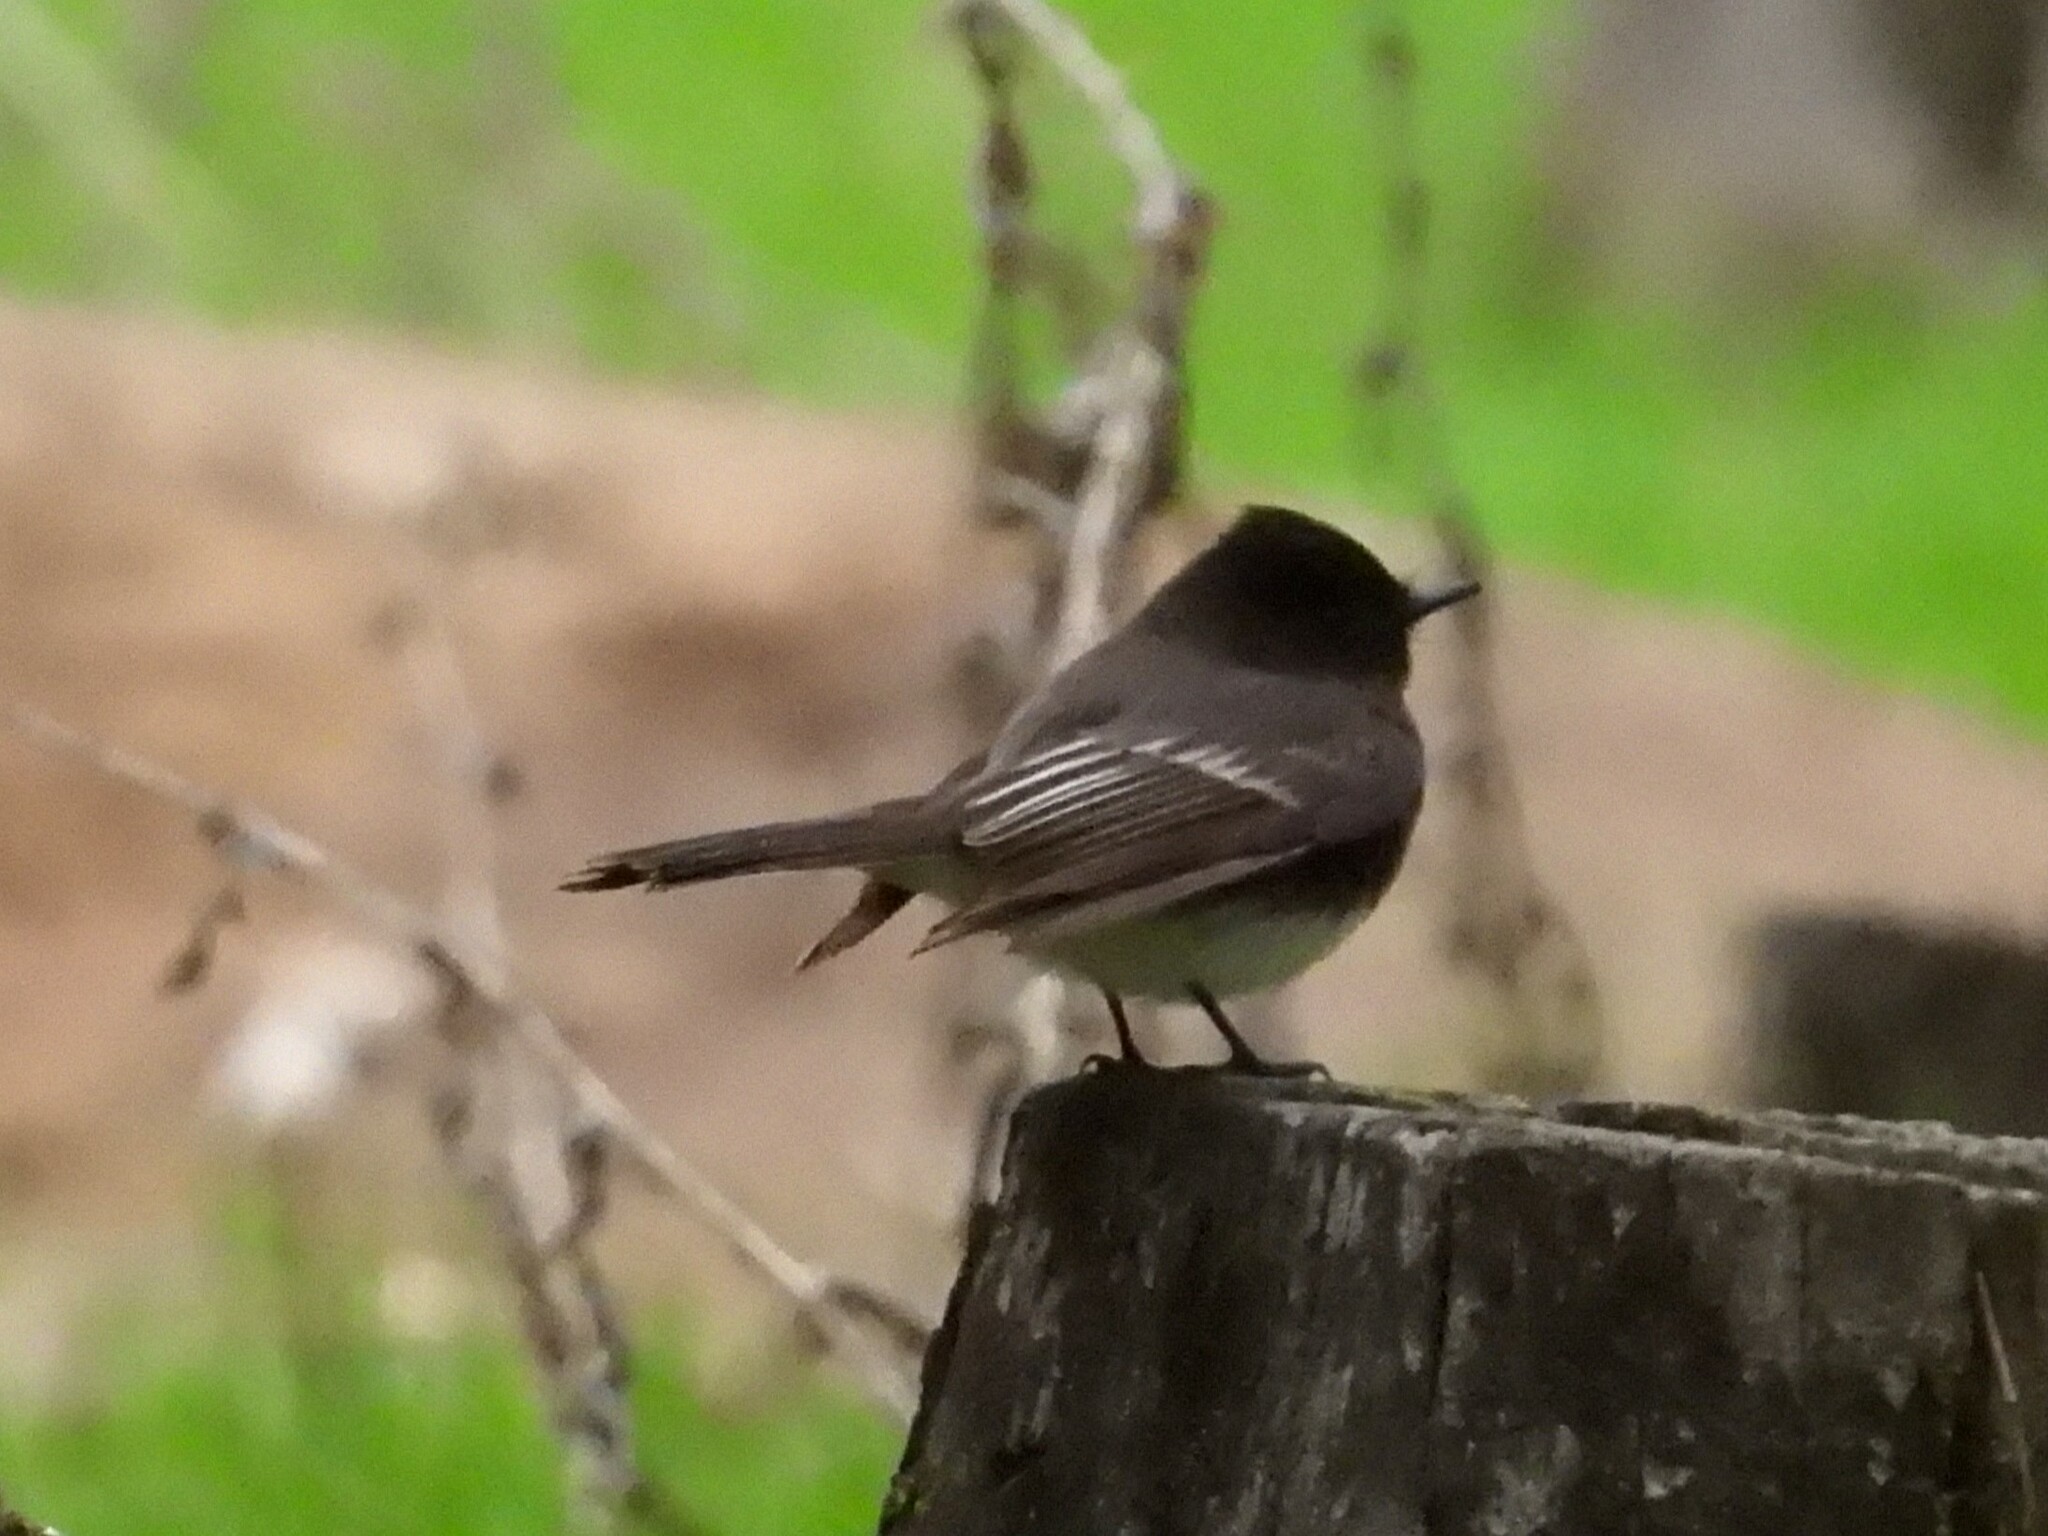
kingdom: Animalia
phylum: Chordata
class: Aves
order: Passeriformes
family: Tyrannidae
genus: Sayornis
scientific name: Sayornis nigricans
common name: Black phoebe
